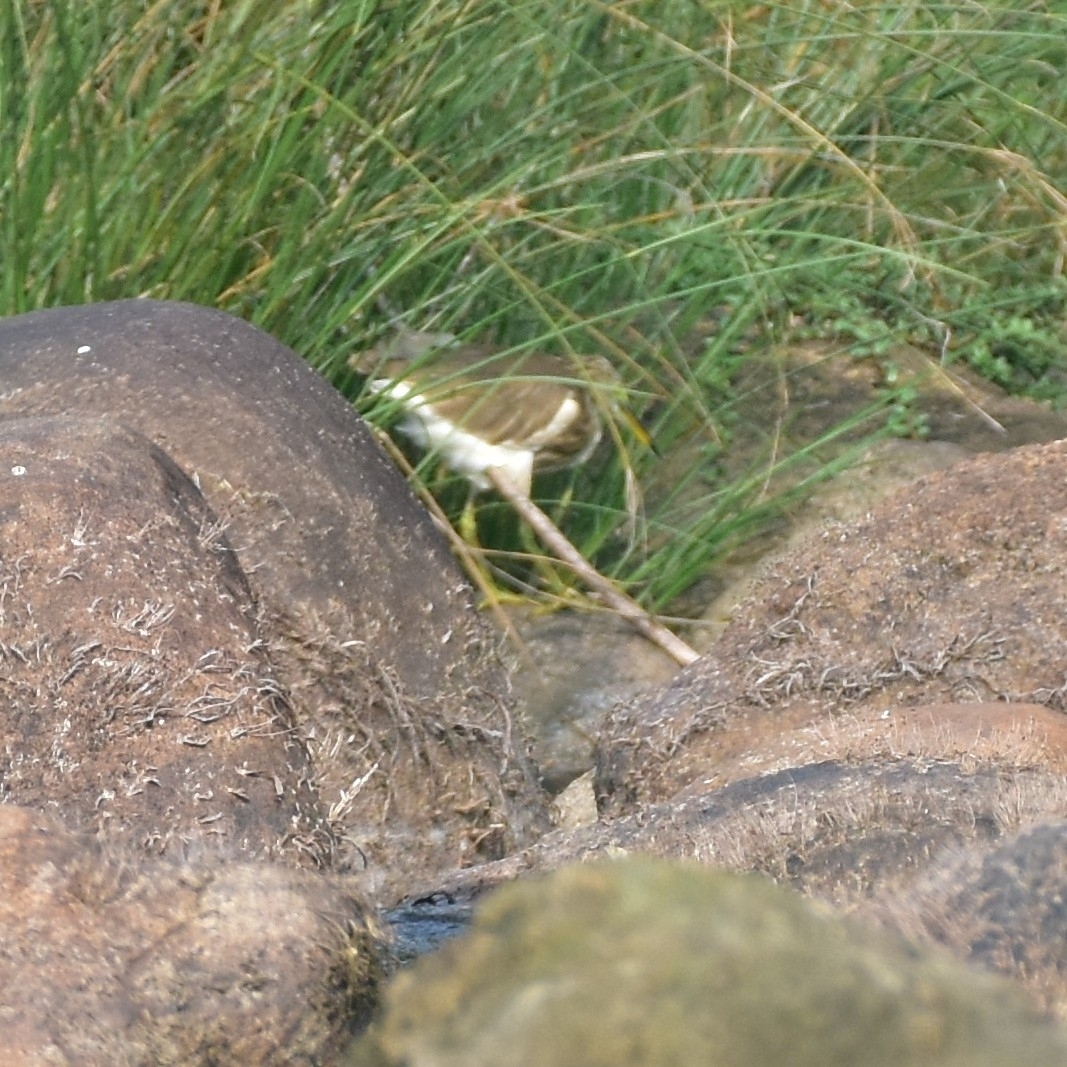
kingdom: Animalia
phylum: Chordata
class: Aves
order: Pelecaniformes
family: Ardeidae
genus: Ardeola
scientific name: Ardeola grayii
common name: Indian pond heron
